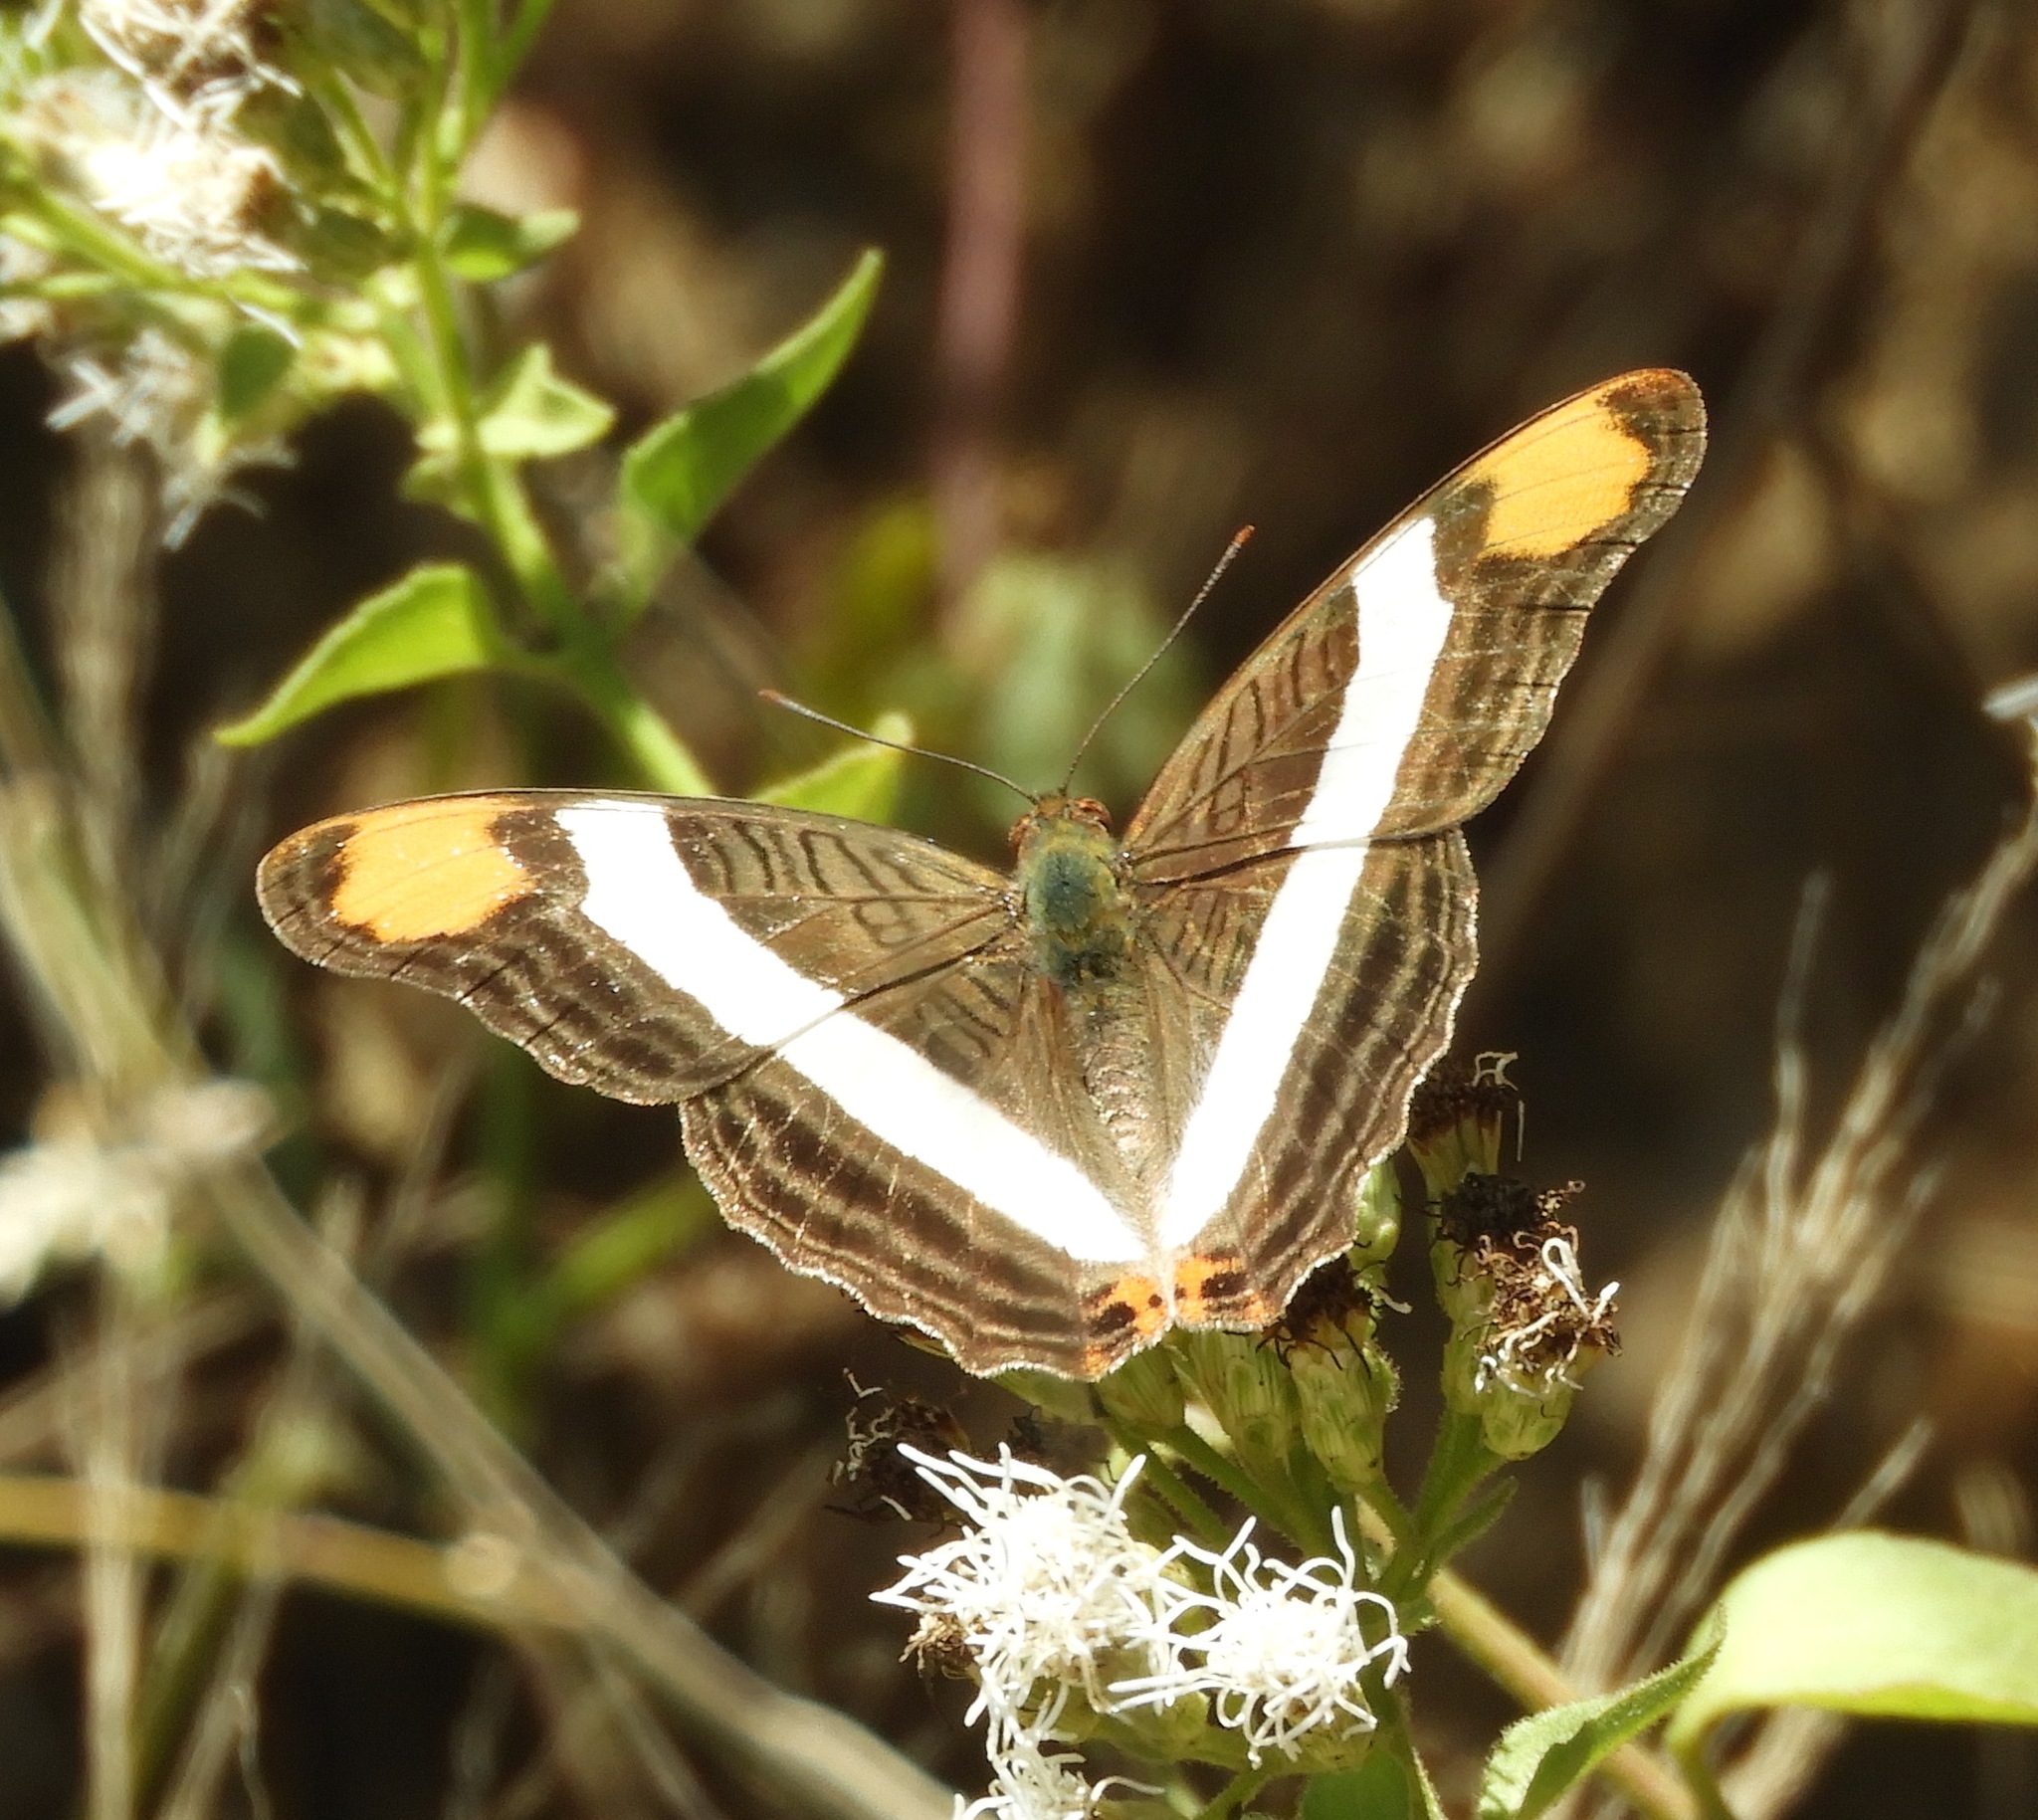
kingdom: Animalia
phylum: Arthropoda
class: Insecta
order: Lepidoptera
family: Nymphalidae
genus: Limenitis
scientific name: Limenitis fessonia
